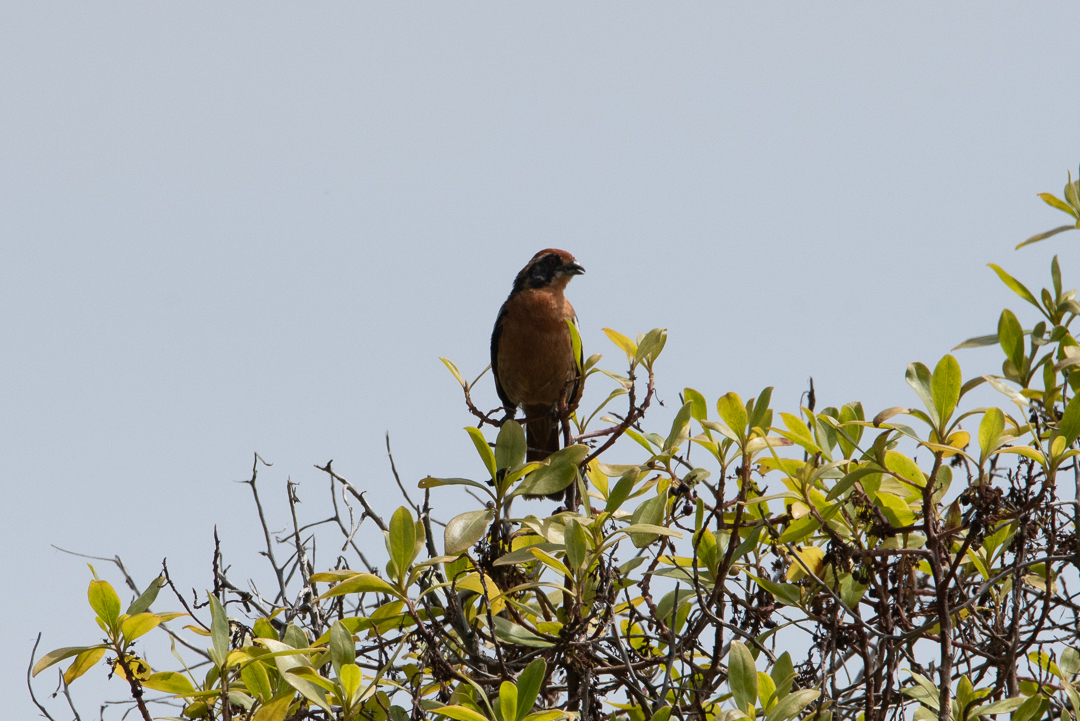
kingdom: Animalia
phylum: Chordata
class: Aves
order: Passeriformes
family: Cotingidae
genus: Phytotoma
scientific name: Phytotoma rara
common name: Rufous-tailed plantcutter
